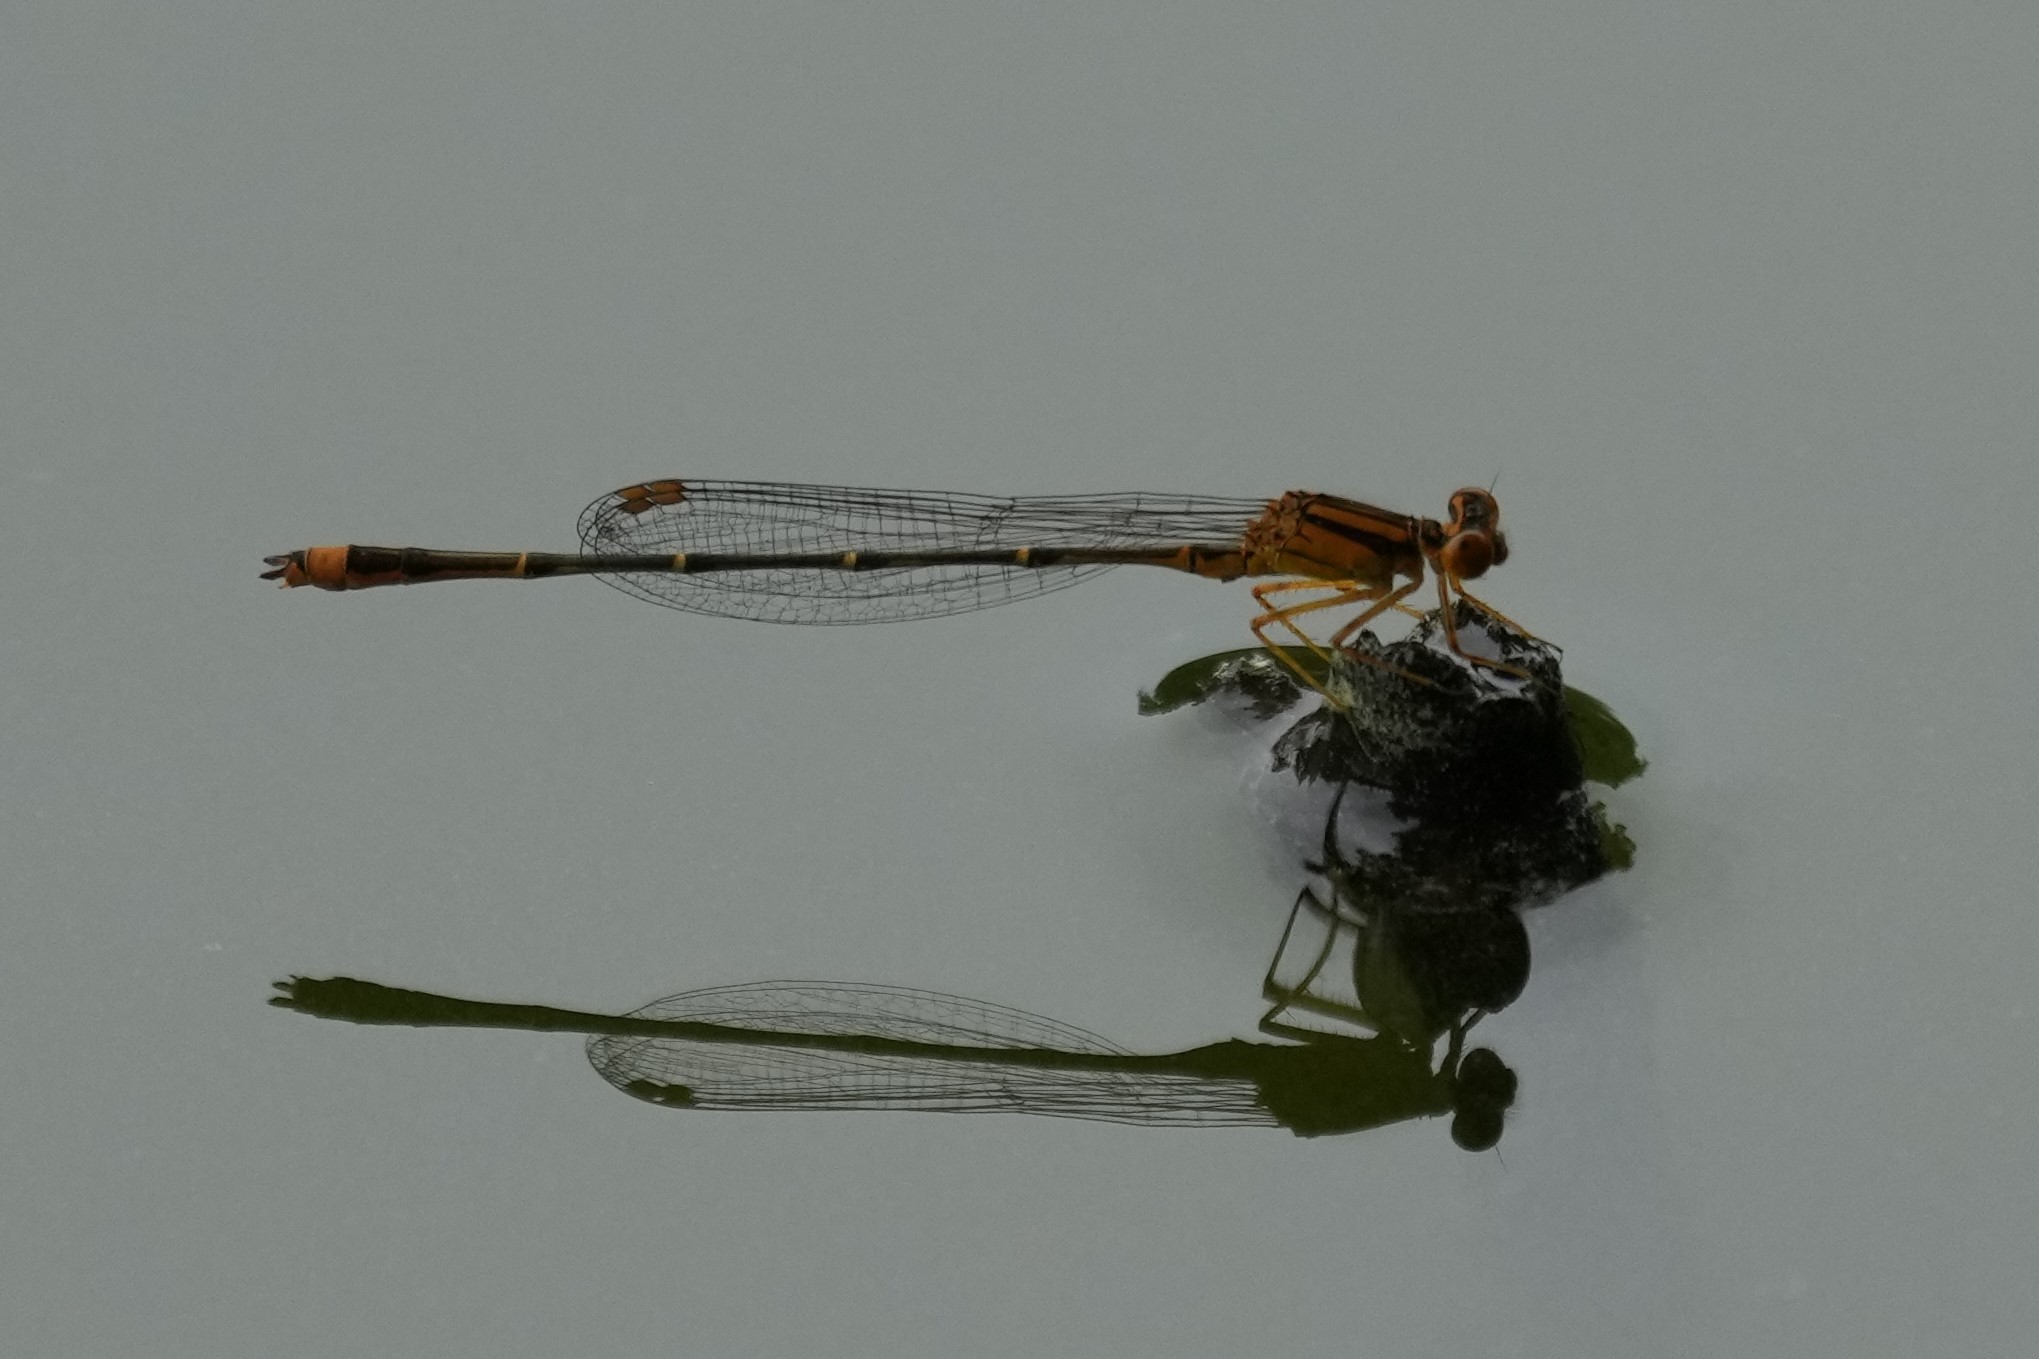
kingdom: Animalia
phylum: Arthropoda
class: Insecta
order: Odonata
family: Coenagrionidae
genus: Enallagma
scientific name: Enallagma signatum
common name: Orange bluet
